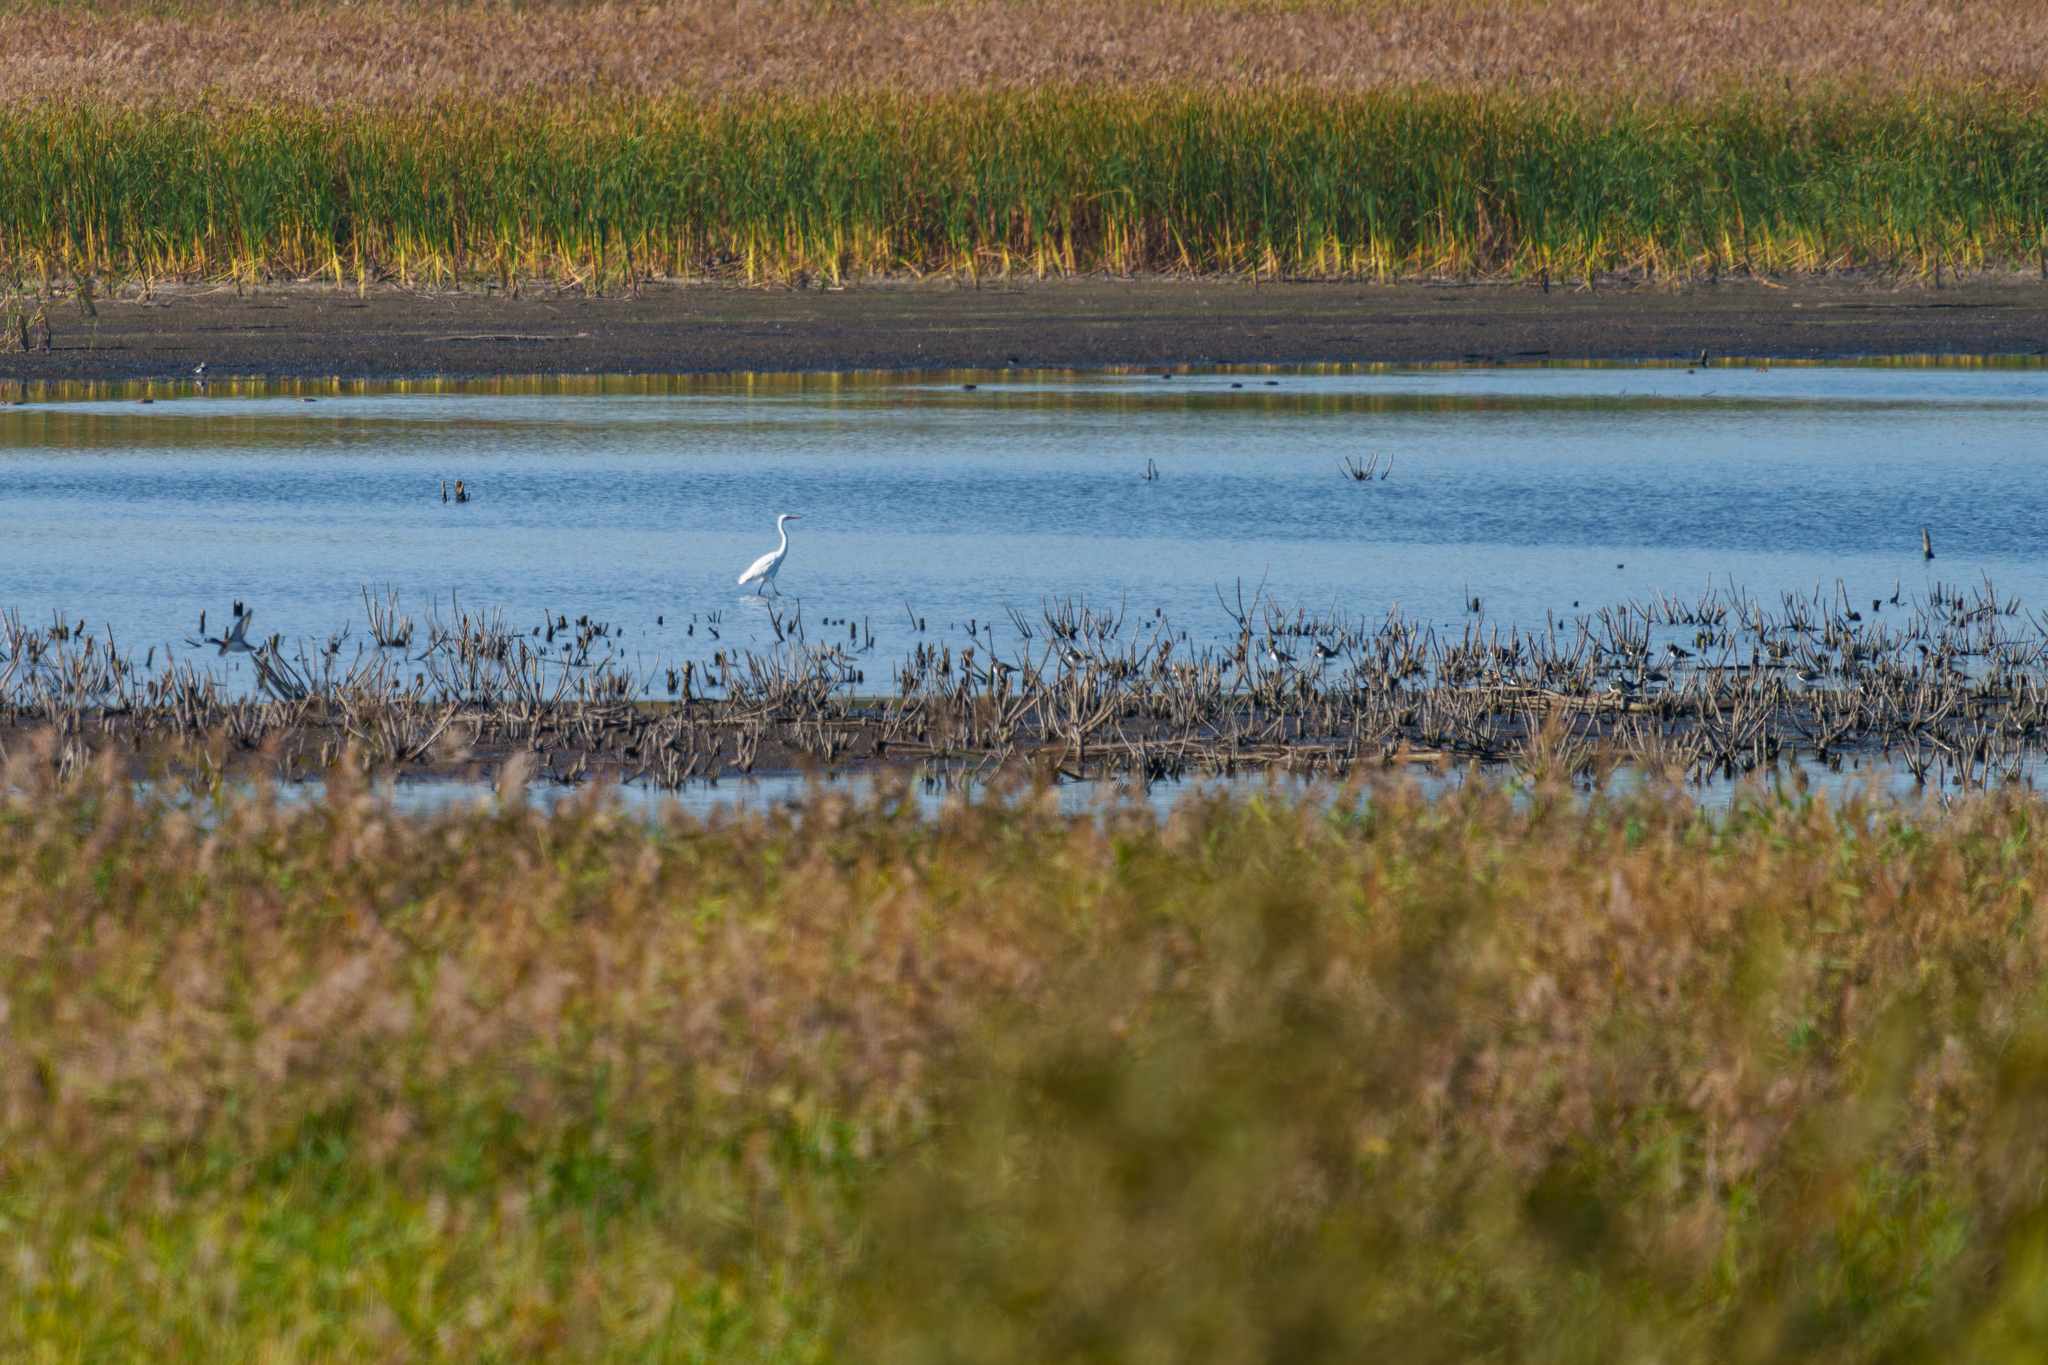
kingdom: Animalia
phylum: Chordata
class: Aves
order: Pelecaniformes
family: Ardeidae
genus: Ardea
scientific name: Ardea alba
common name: Great egret
